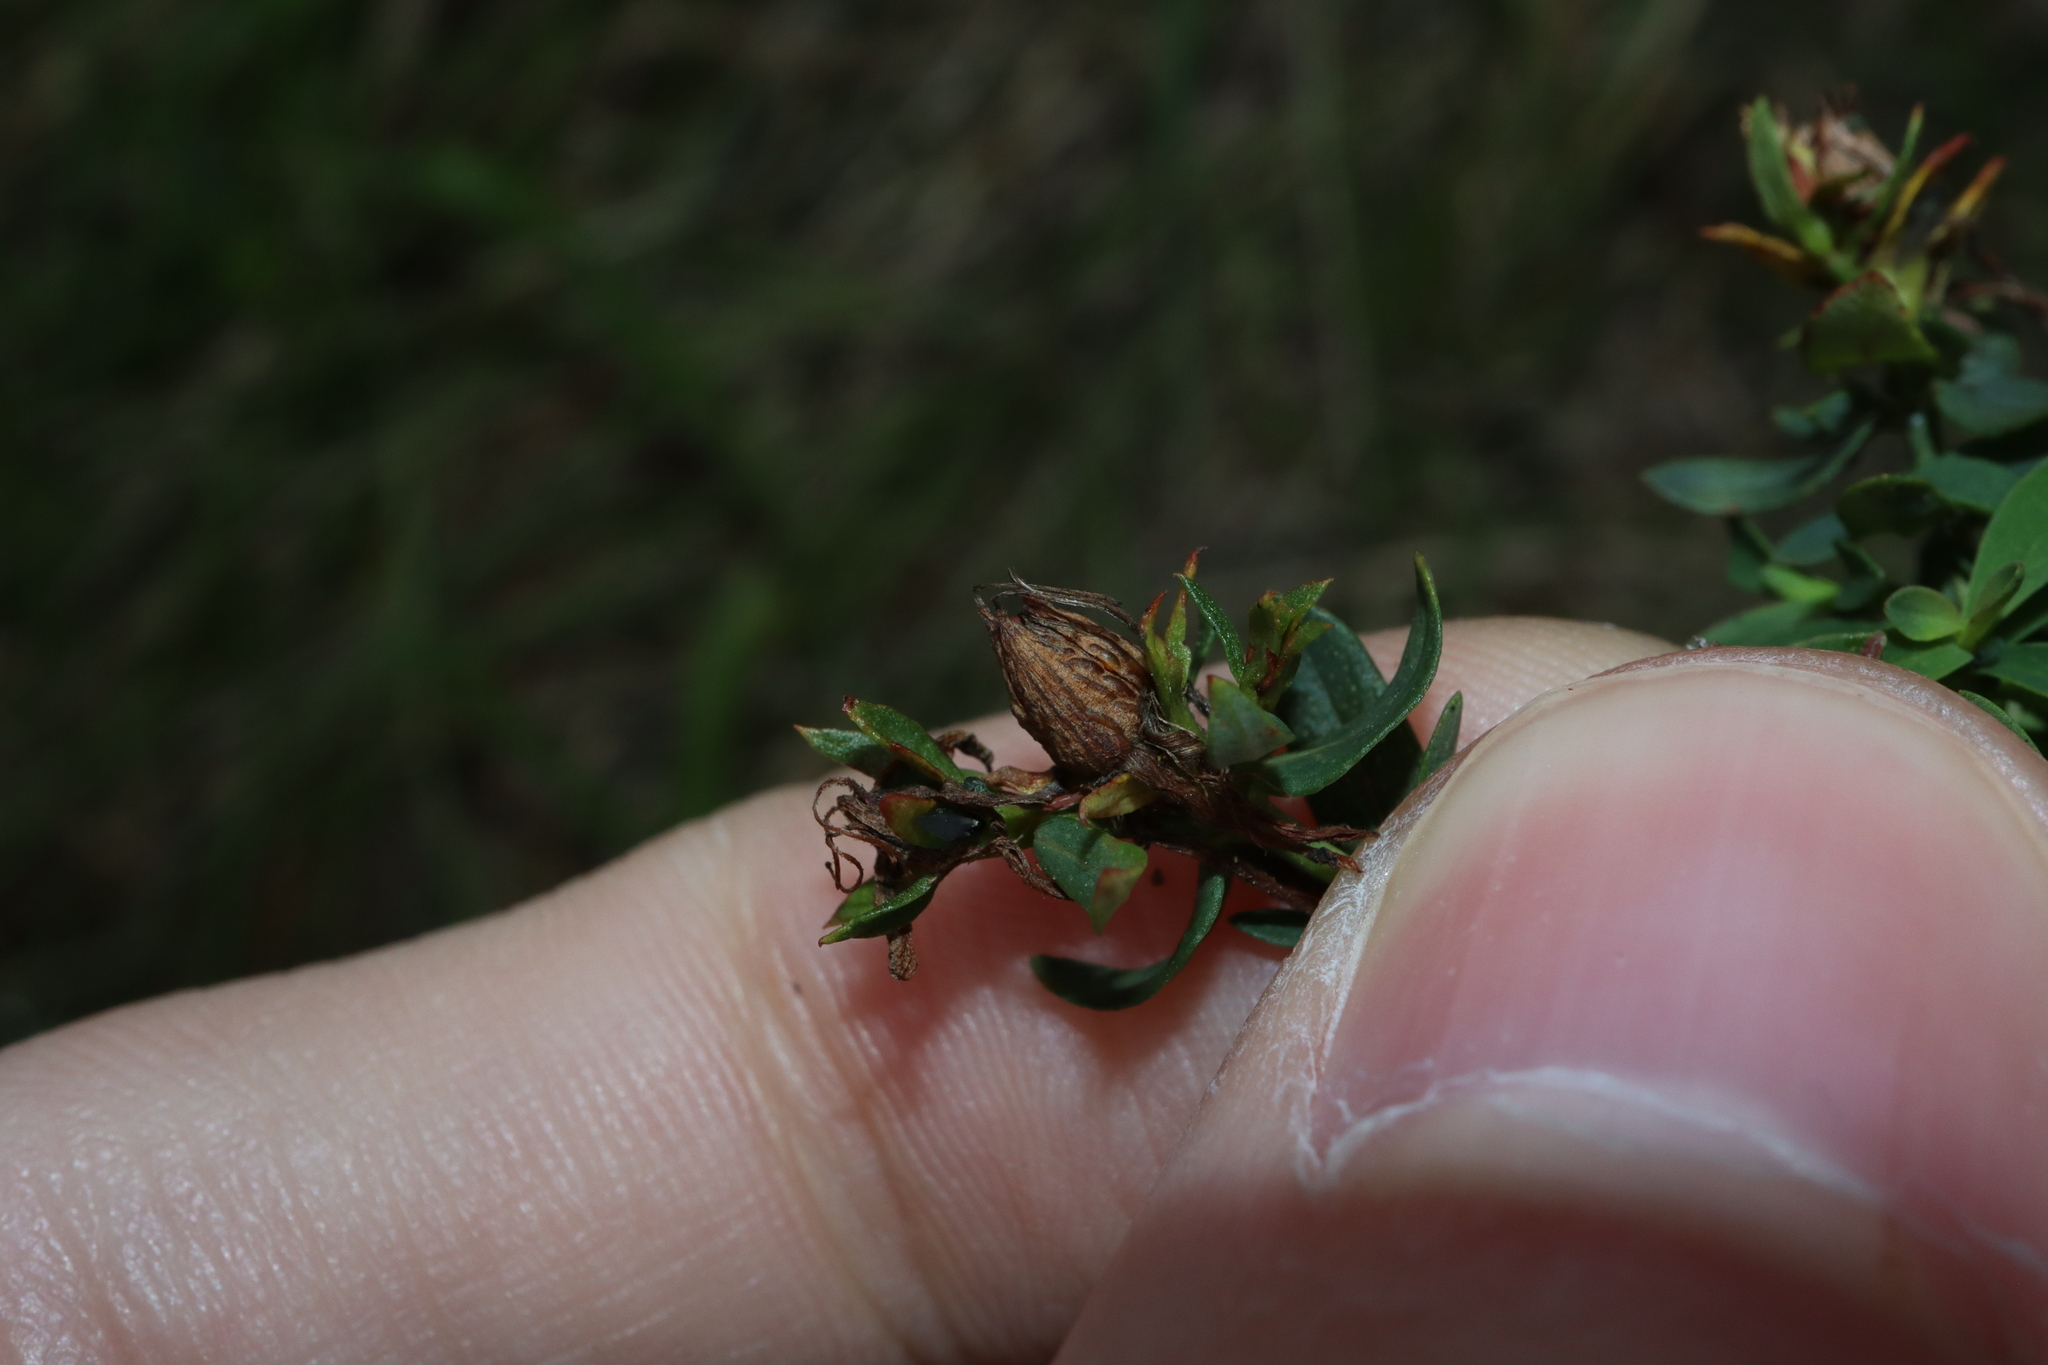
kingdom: Plantae
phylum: Tracheophyta
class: Magnoliopsida
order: Malpighiales
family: Hypericaceae
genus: Hypericum
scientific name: Hypericum perforatum
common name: Common st. johnswort
